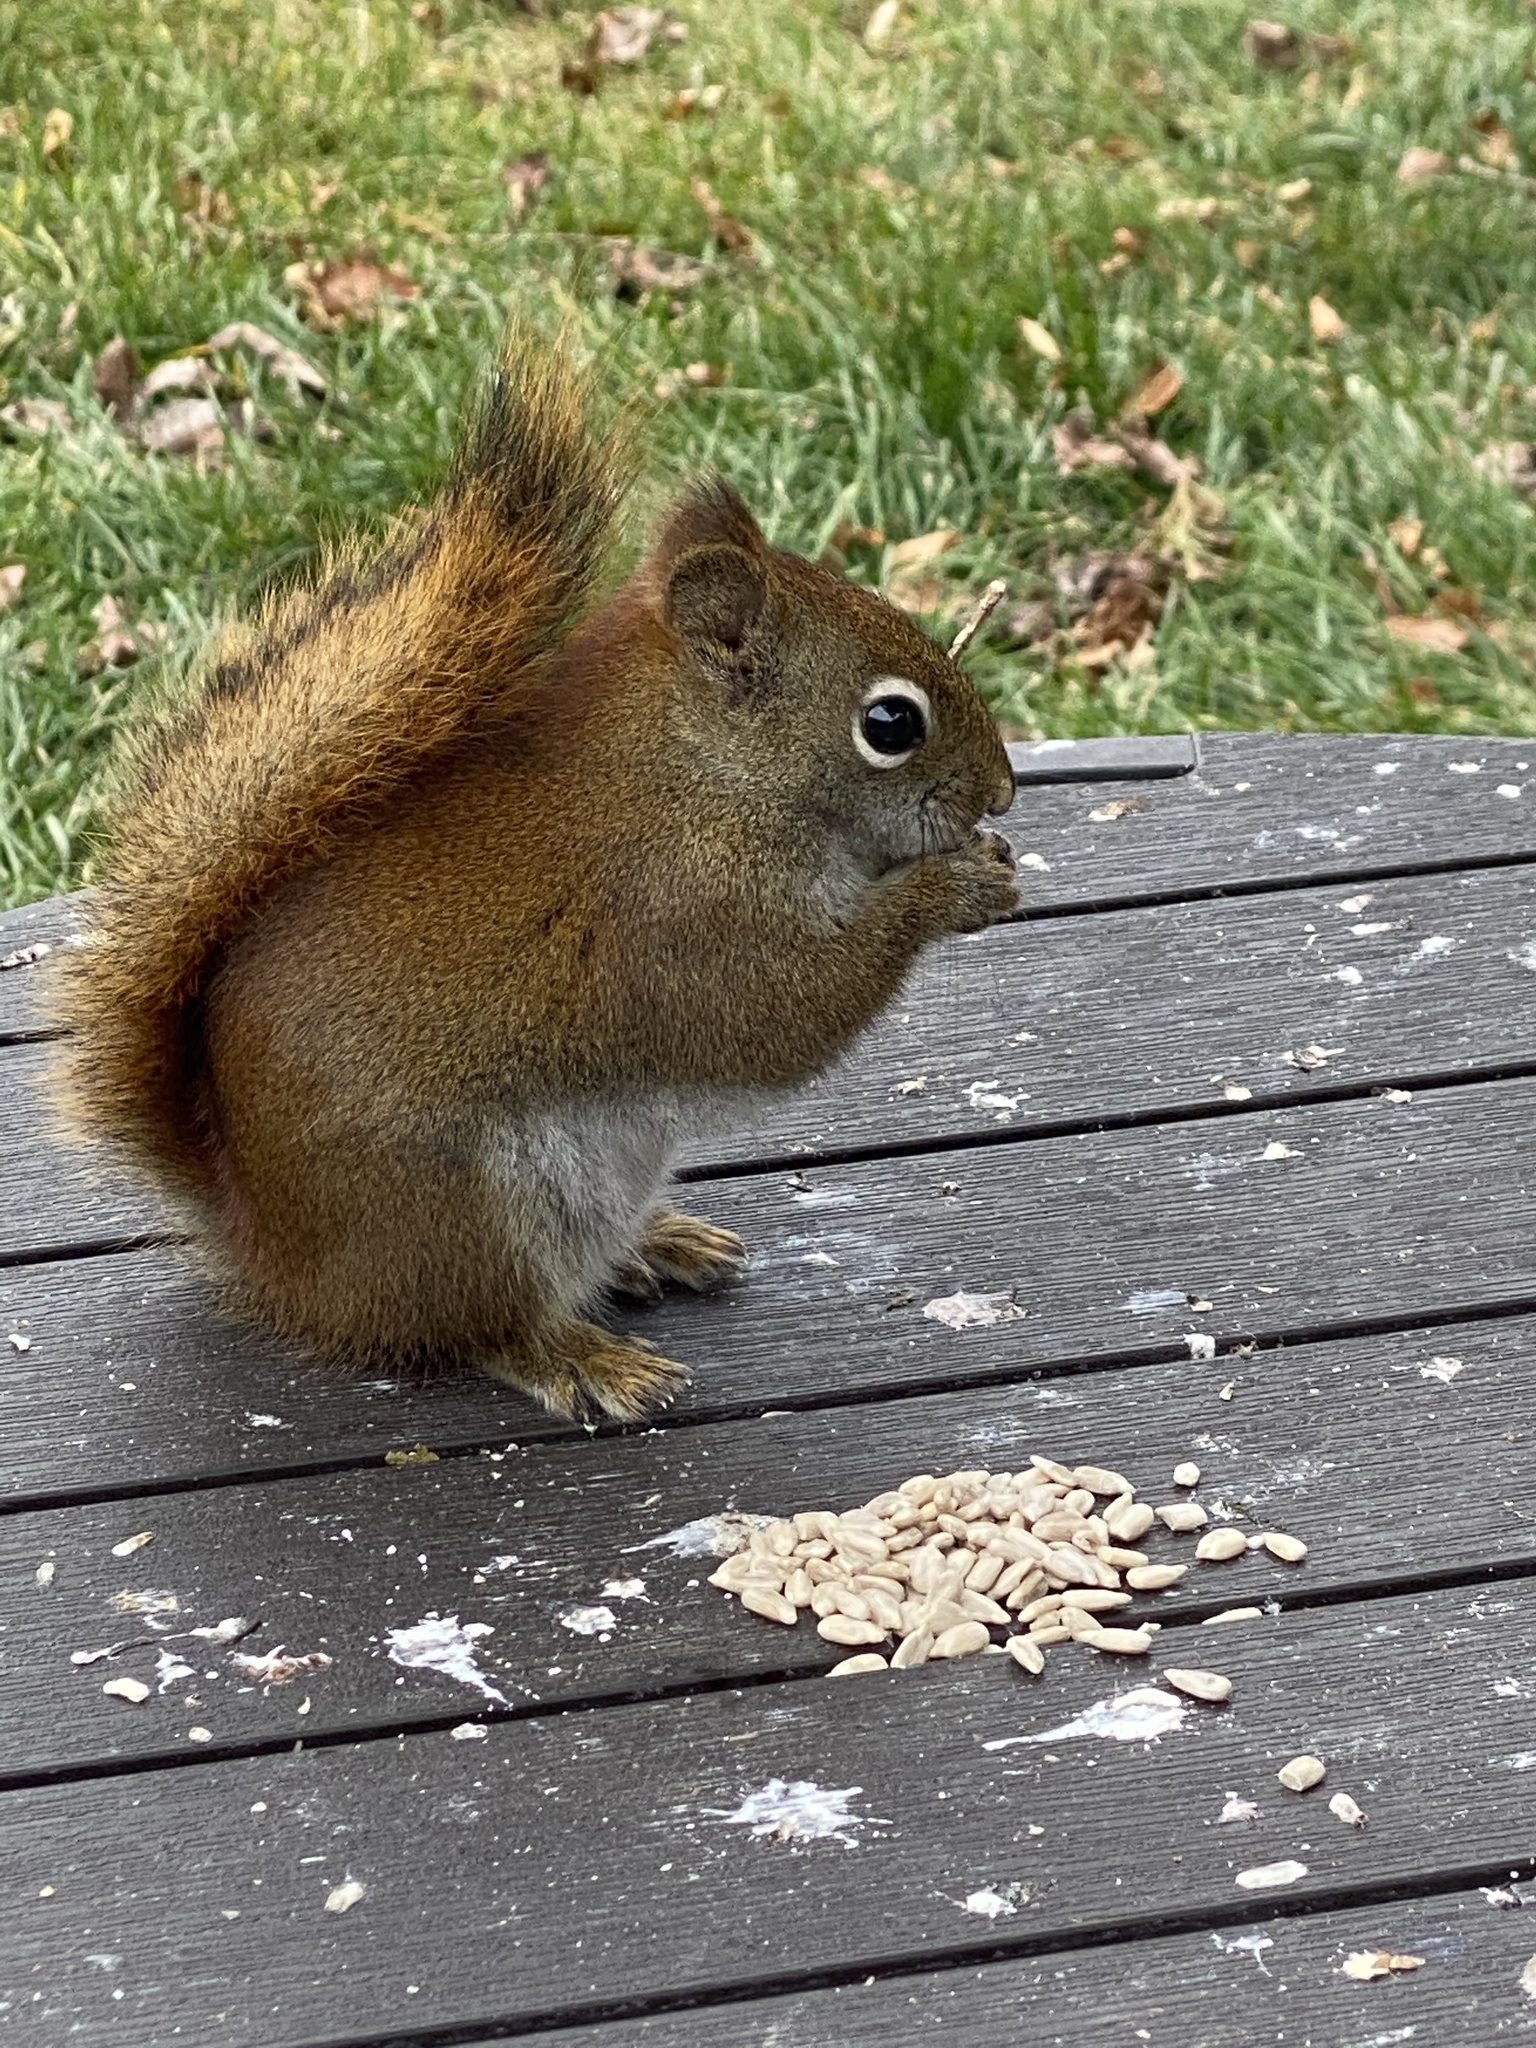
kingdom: Animalia
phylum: Chordata
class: Mammalia
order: Rodentia
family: Sciuridae
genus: Tamiasciurus
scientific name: Tamiasciurus hudsonicus
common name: Red squirrel
